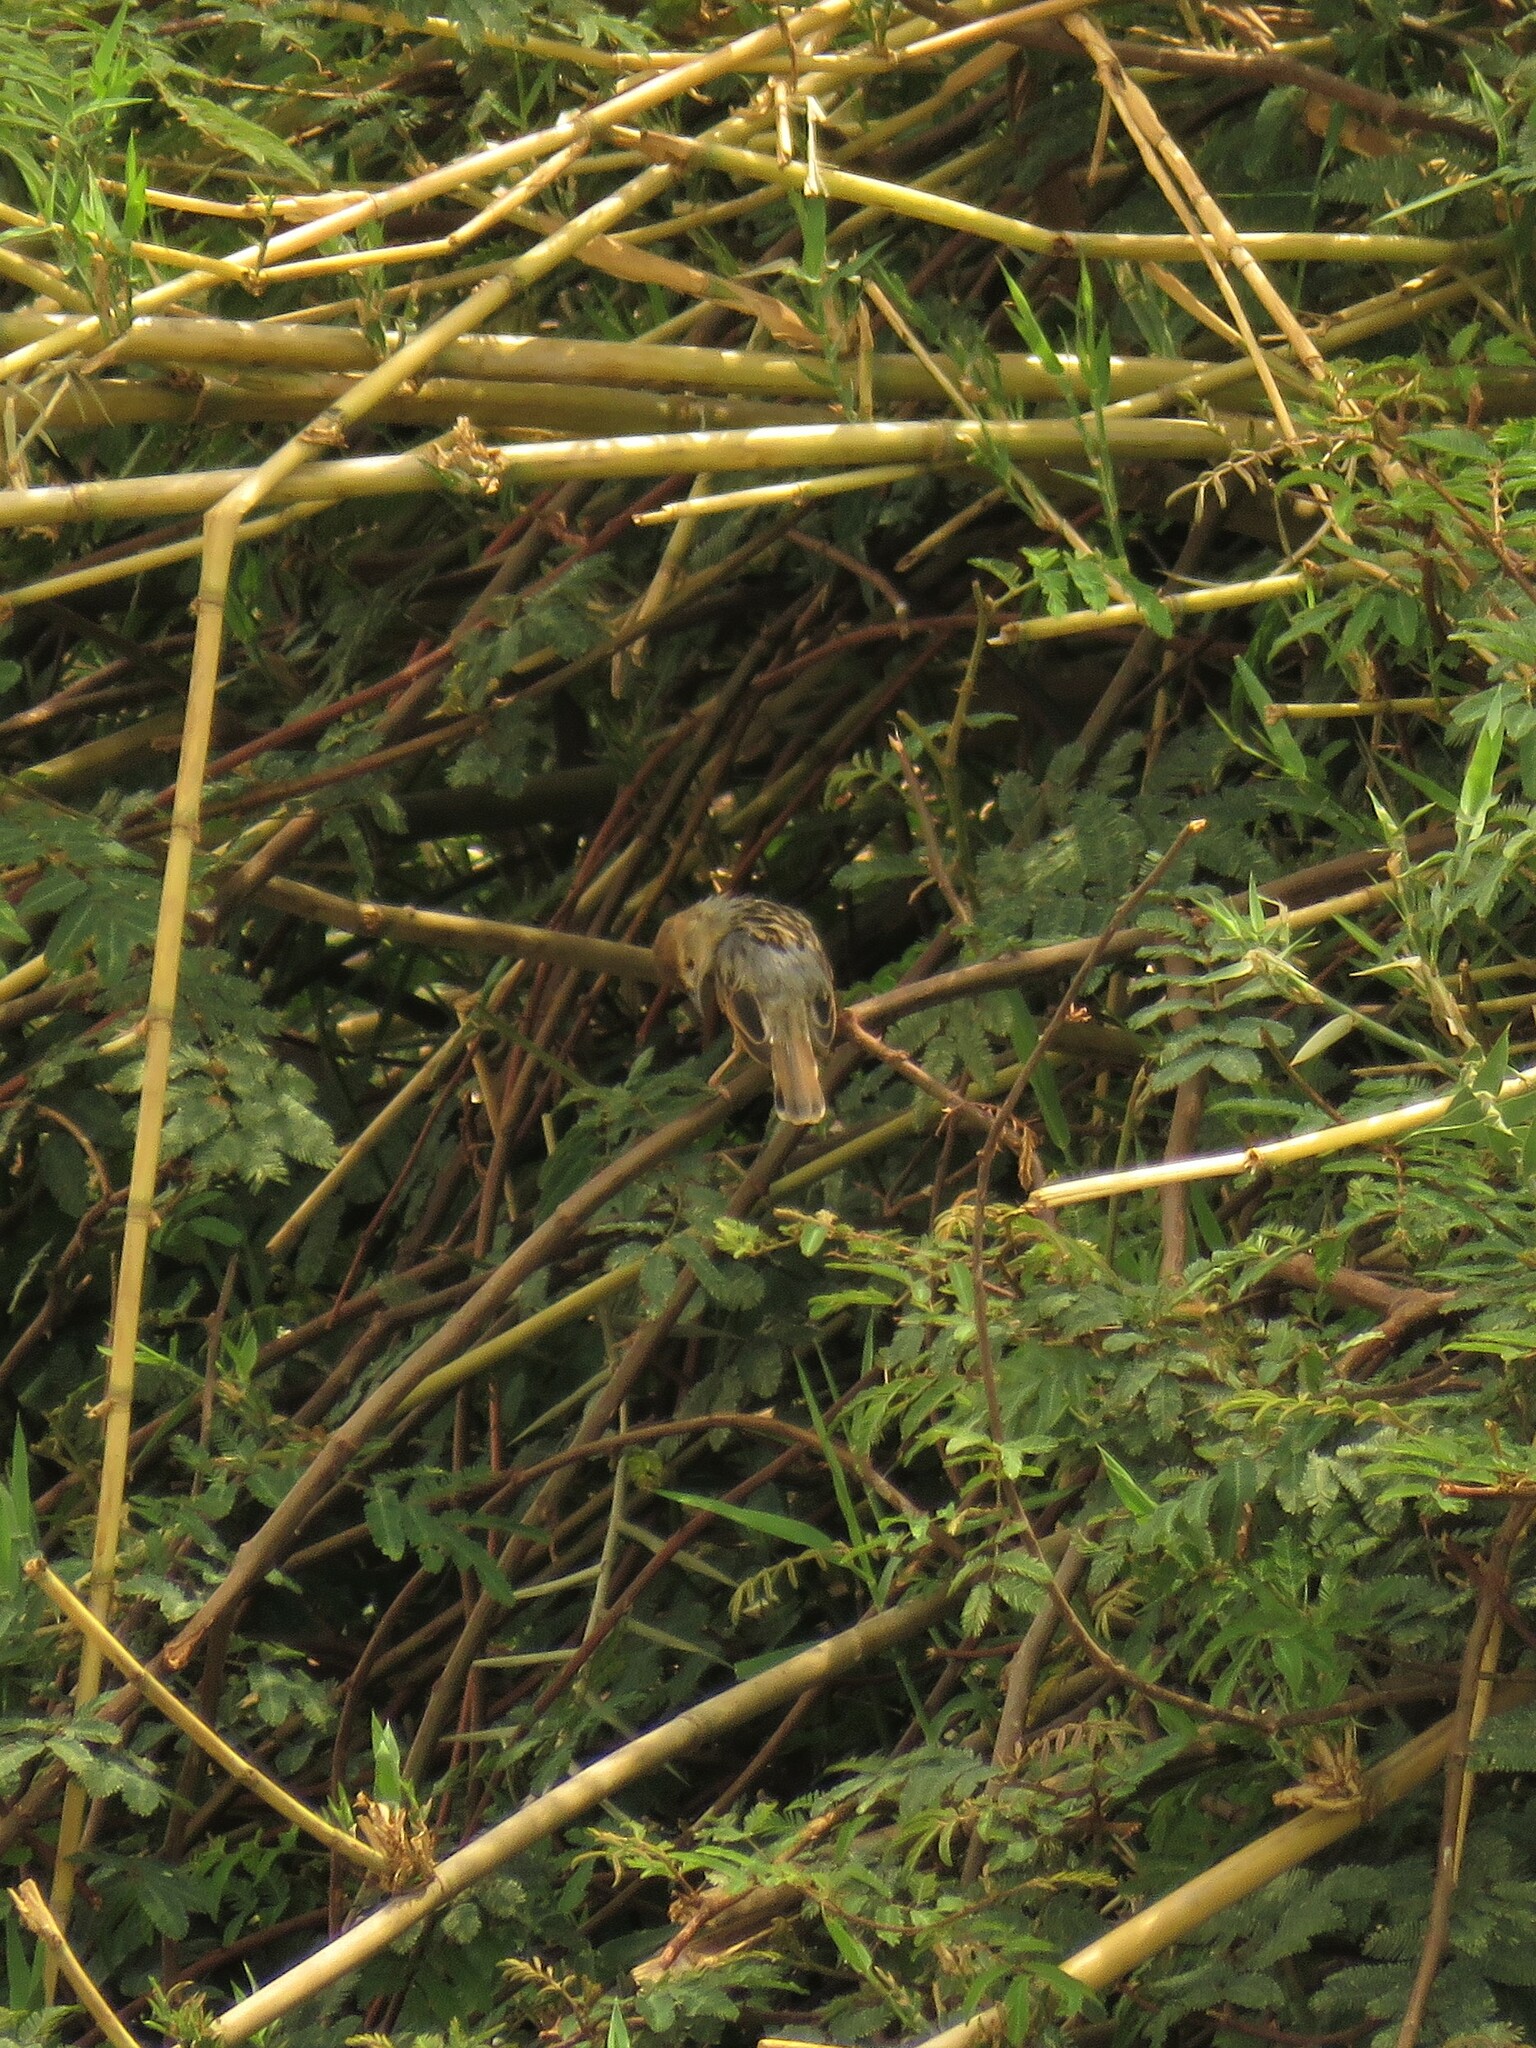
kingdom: Animalia
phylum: Chordata
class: Aves
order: Passeriformes
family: Cisticolidae
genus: Cisticola
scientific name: Cisticola luapula
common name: Luapula cisticola
